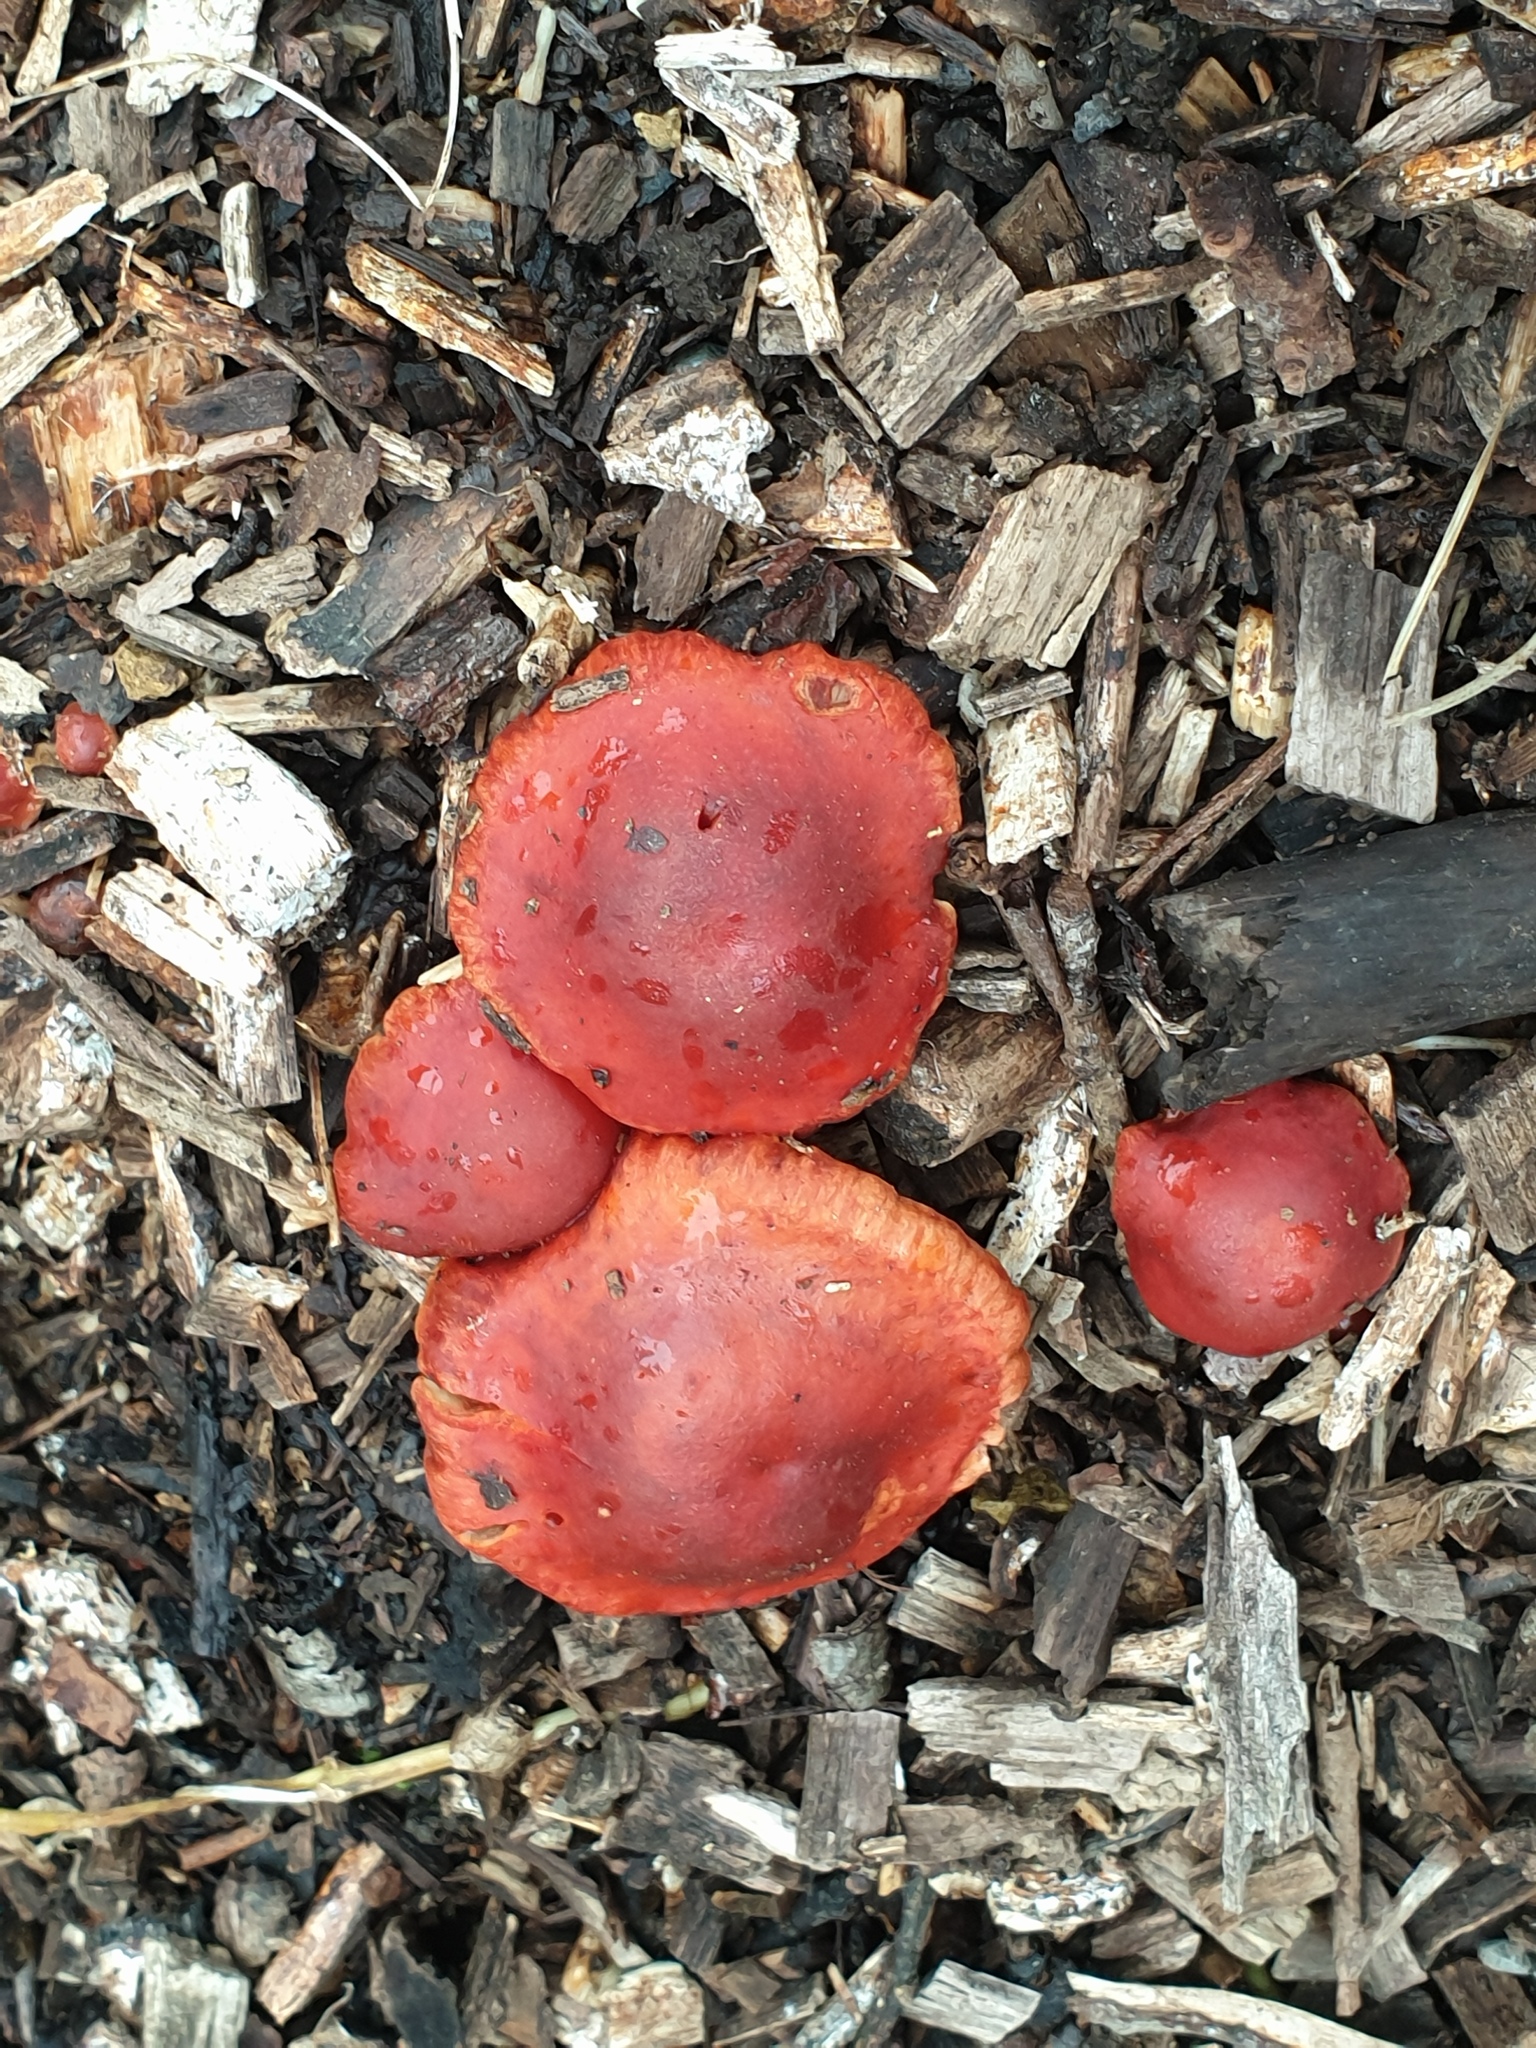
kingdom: Fungi
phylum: Basidiomycota
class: Agaricomycetes
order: Agaricales
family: Strophariaceae
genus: Leratiomyces
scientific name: Leratiomyces ceres
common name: Redlead roundhead
